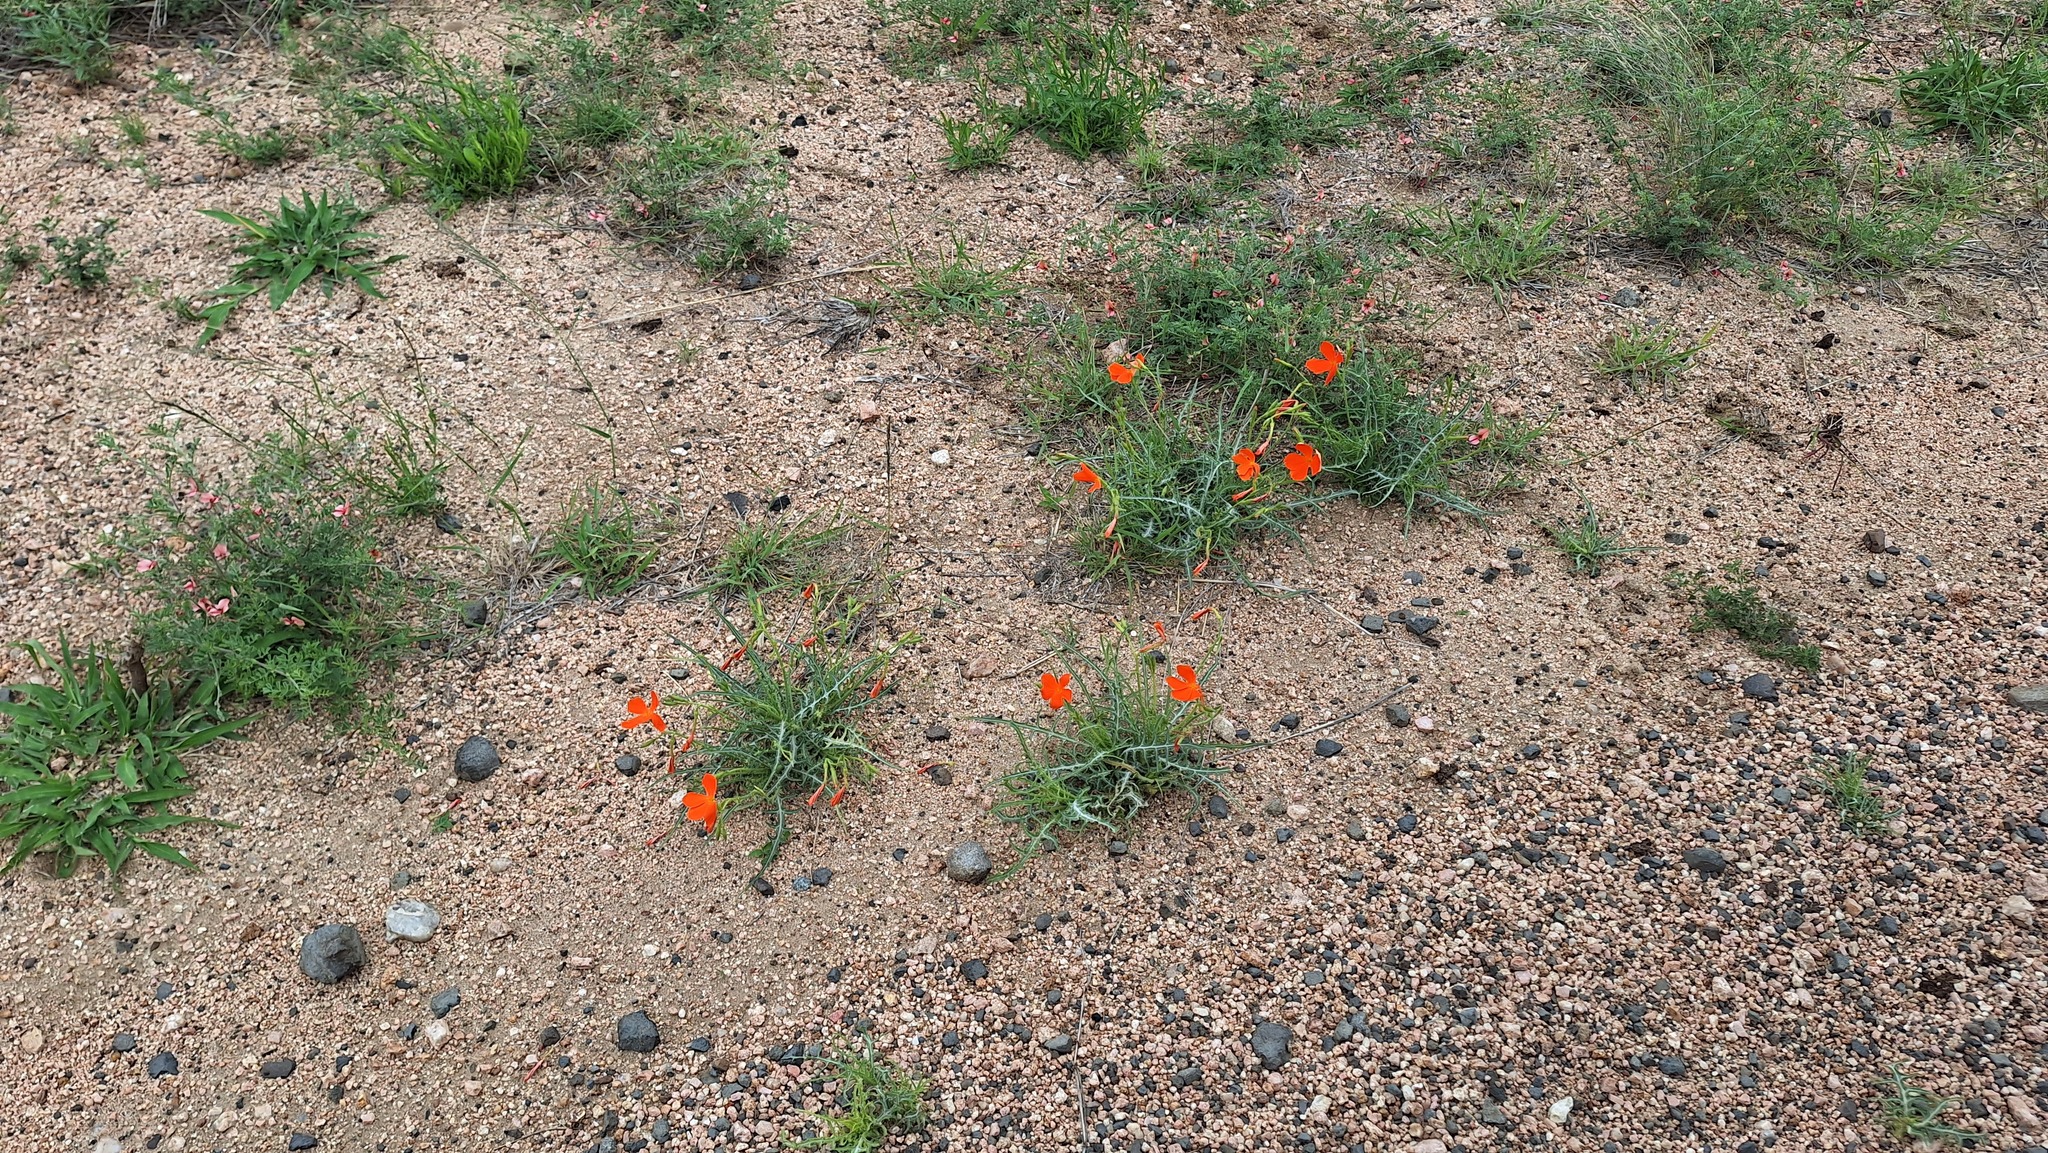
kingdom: Plantae
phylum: Tracheophyta
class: Magnoliopsida
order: Malpighiales
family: Turneraceae
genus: Tricliceras
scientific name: Tricliceras schinzii
